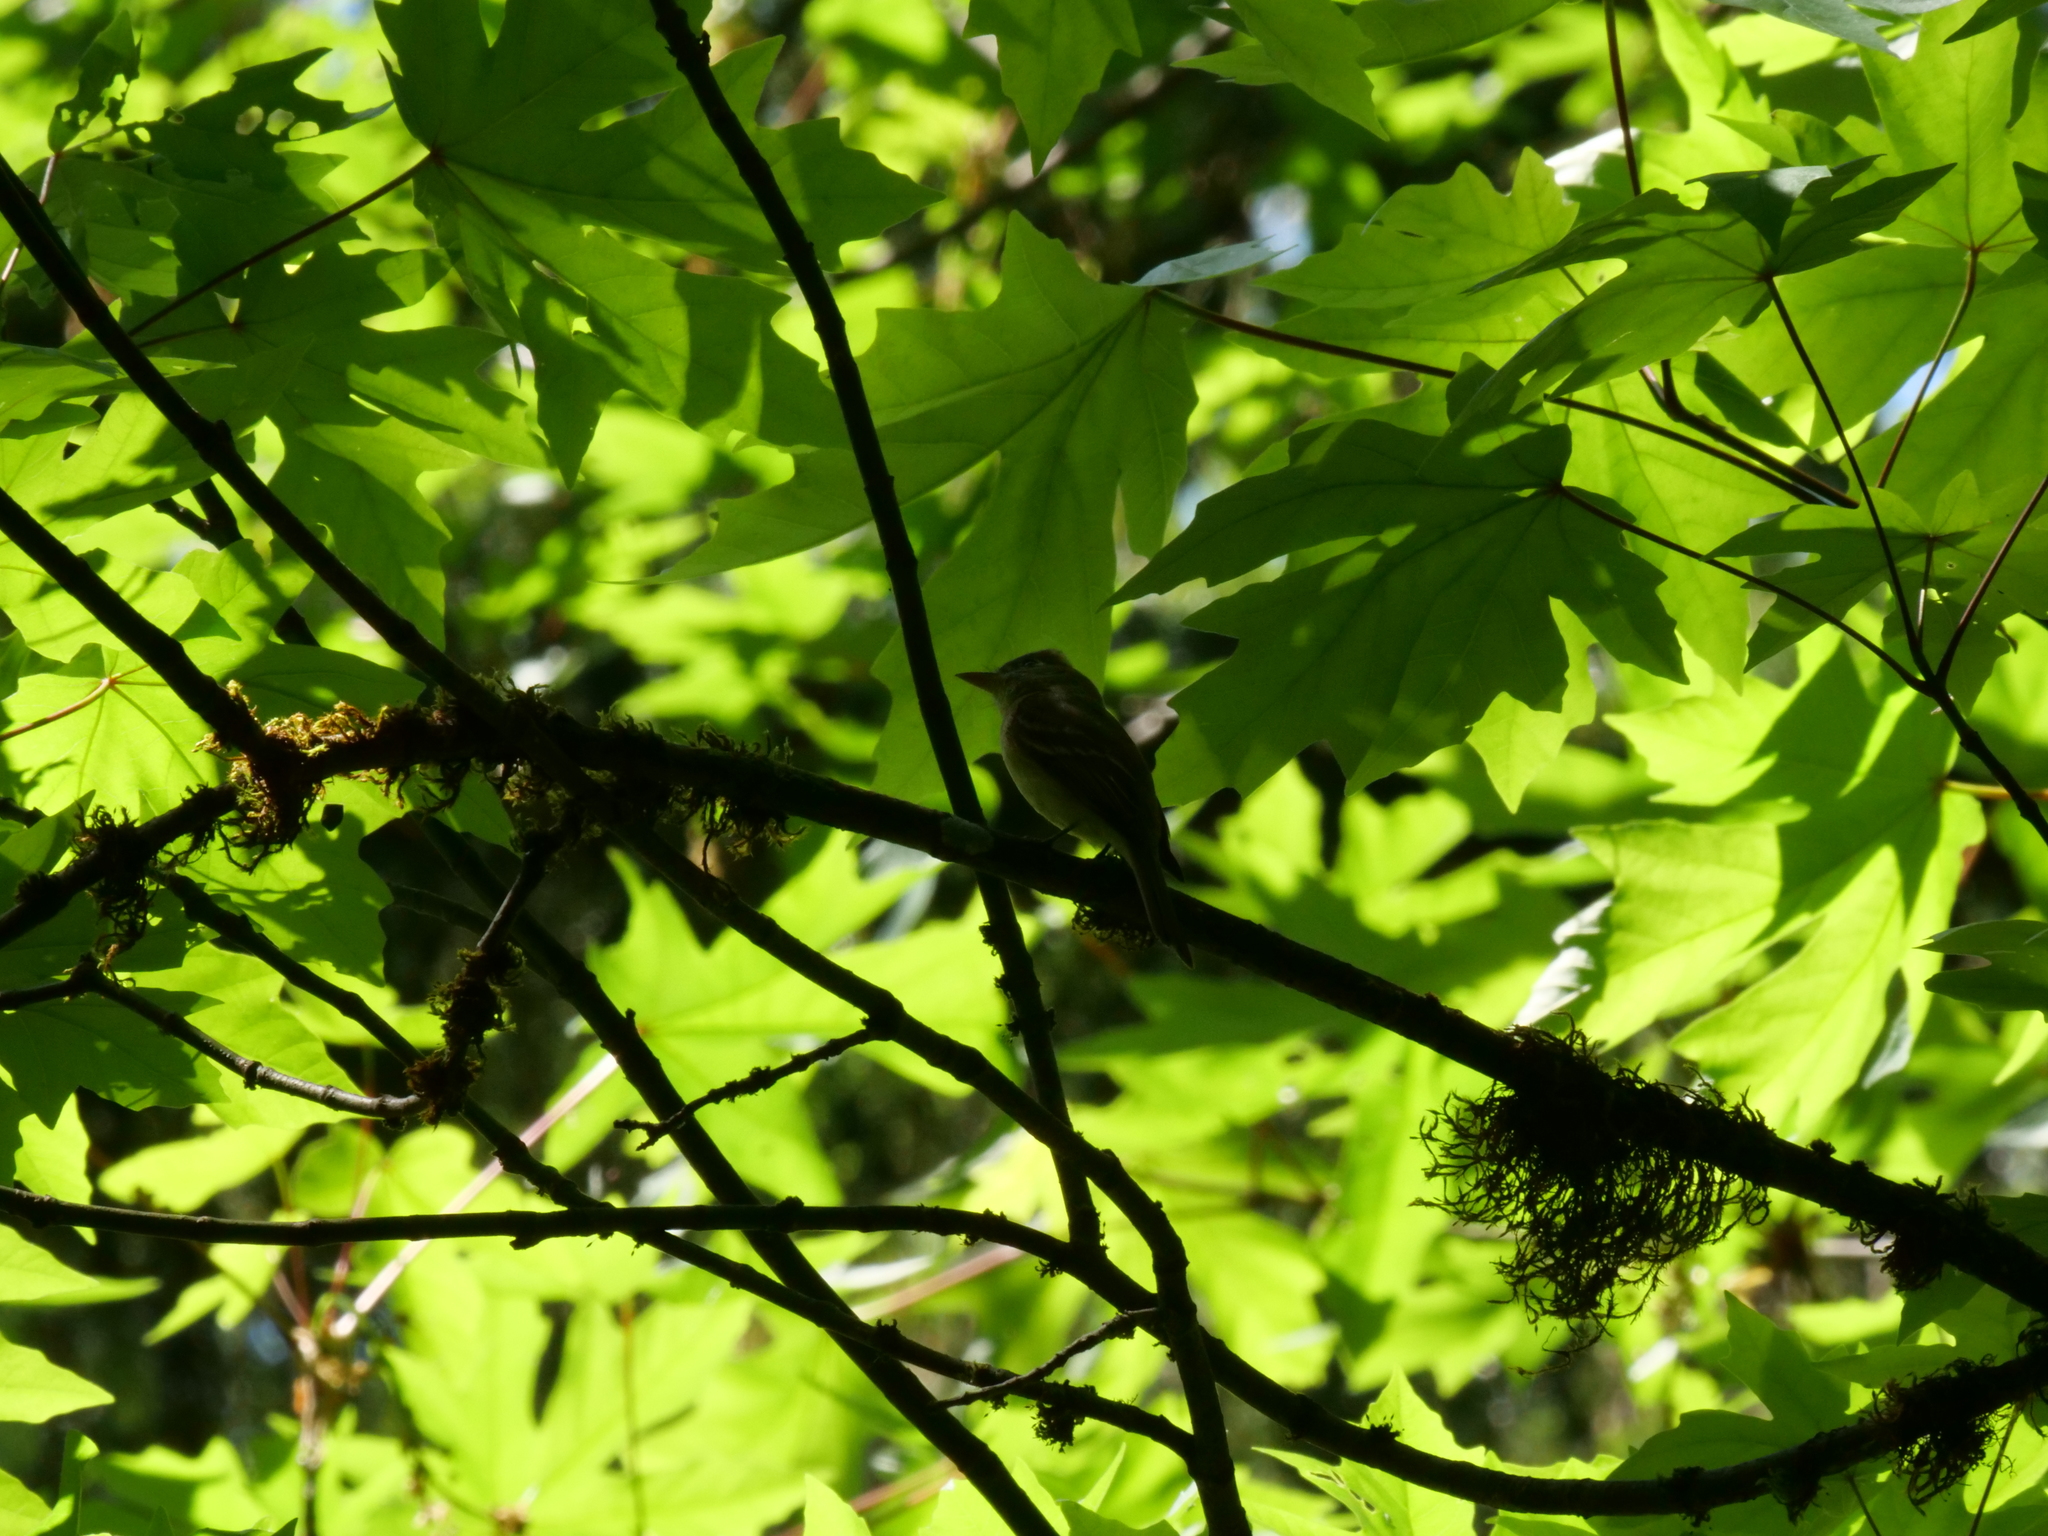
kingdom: Animalia
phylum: Chordata
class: Aves
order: Passeriformes
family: Tyrannidae
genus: Empidonax
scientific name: Empidonax difficilis
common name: Pacific-slope flycatcher
